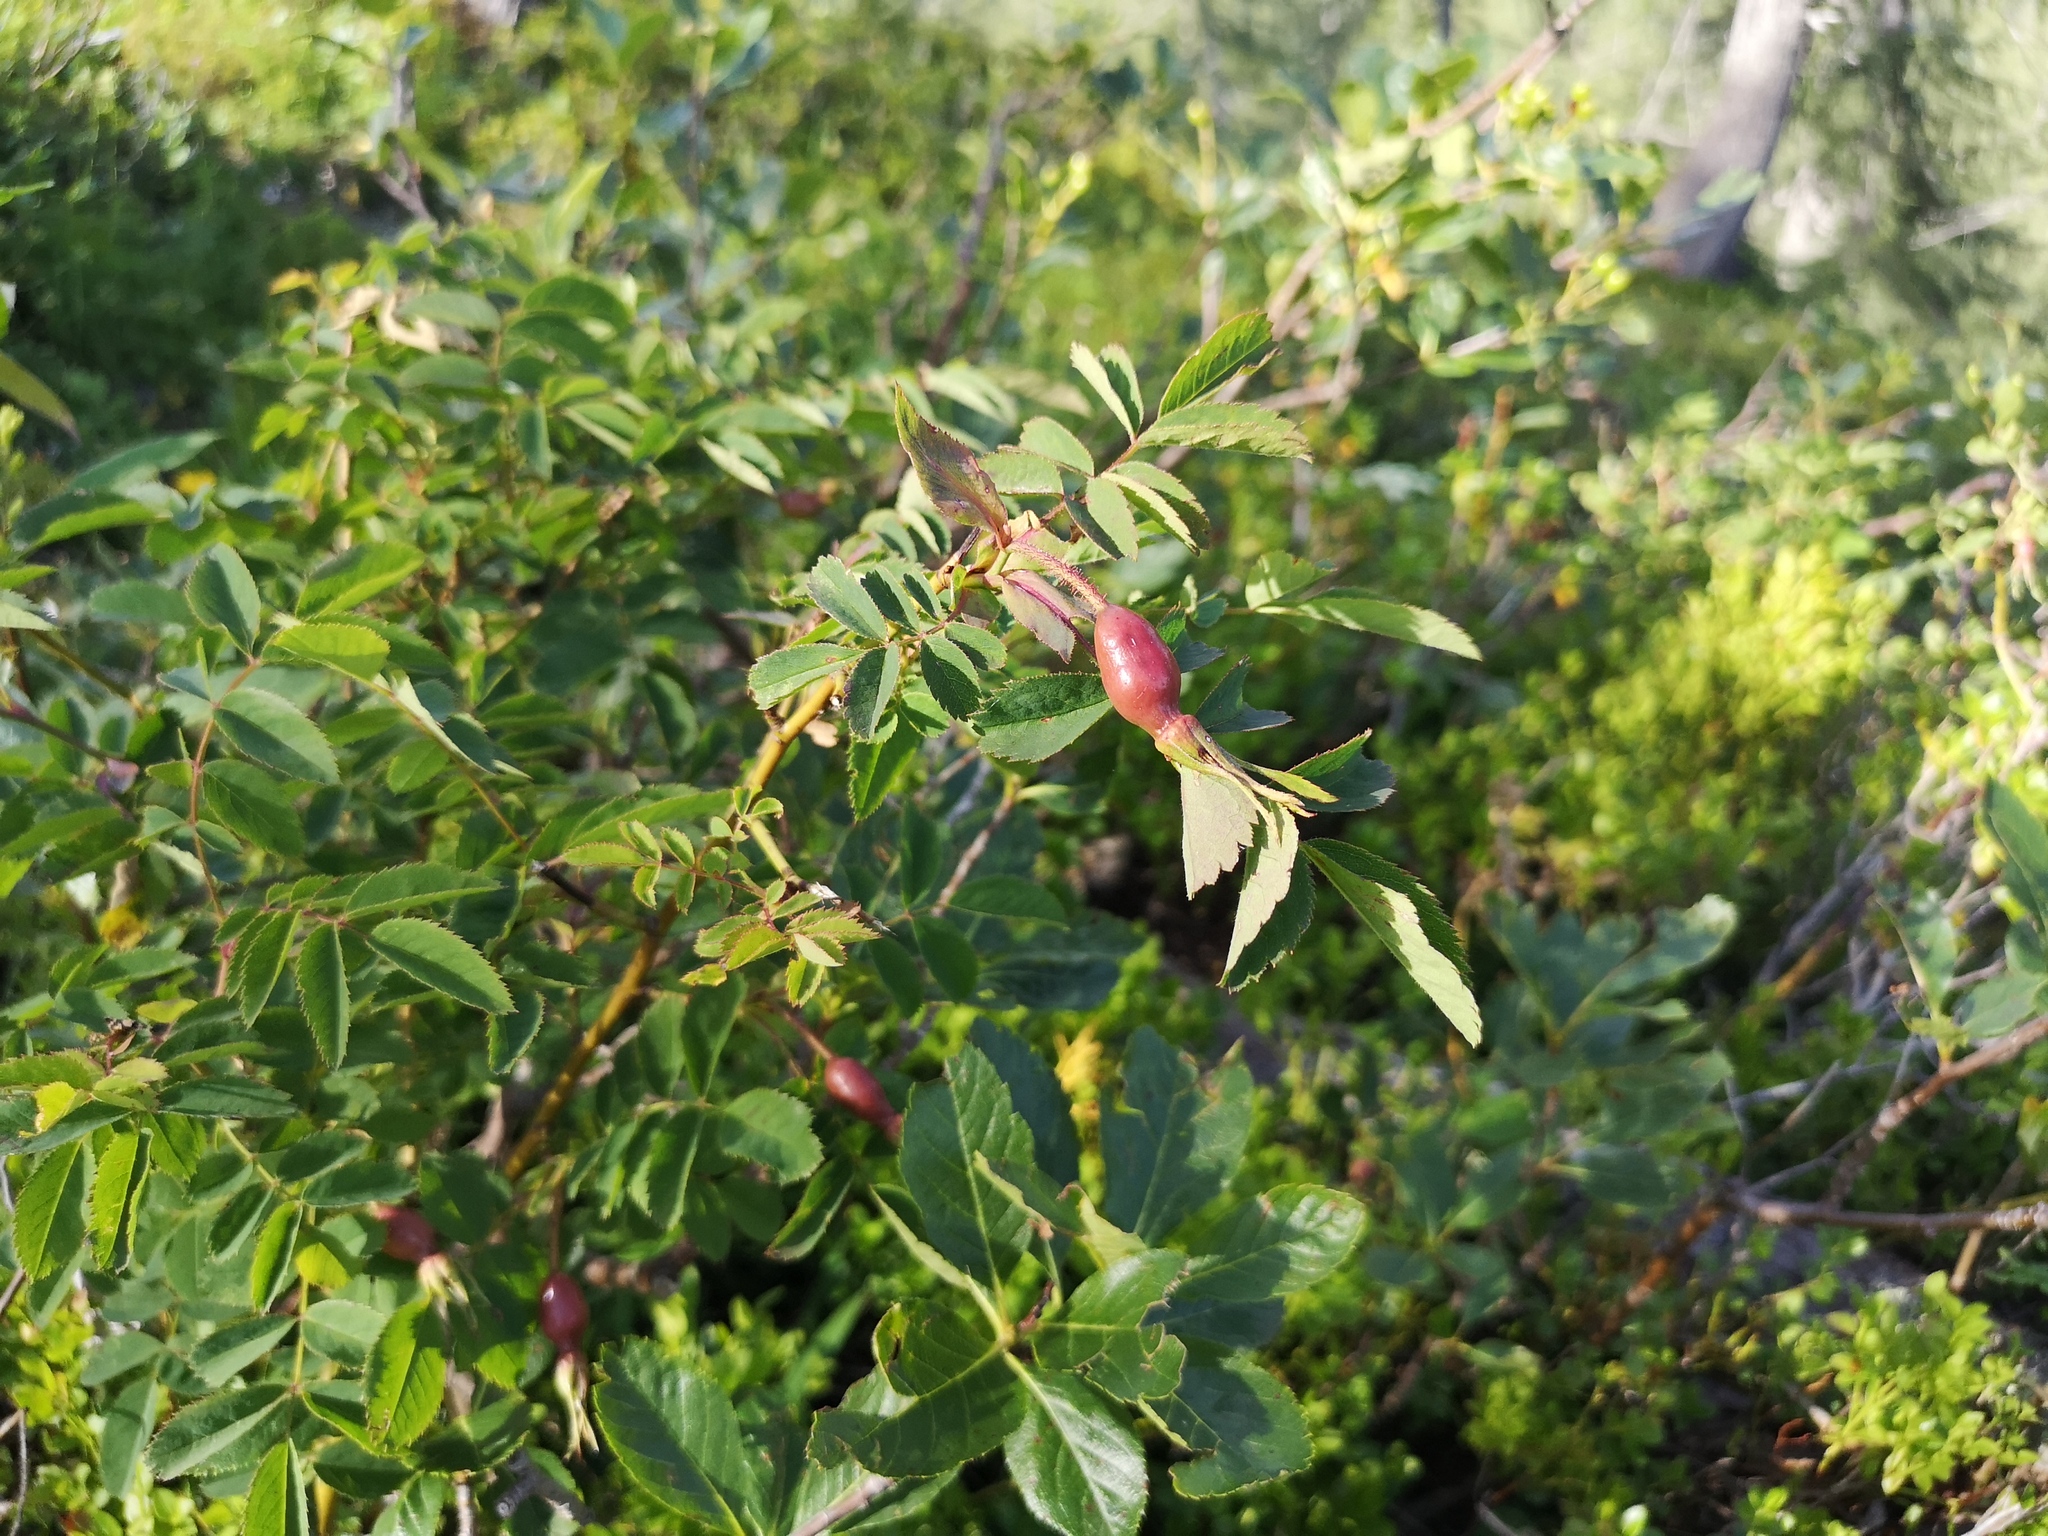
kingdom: Plantae
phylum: Tracheophyta
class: Magnoliopsida
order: Rosales
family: Rosaceae
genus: Rosa
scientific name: Rosa pendulina
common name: Alpine rose
